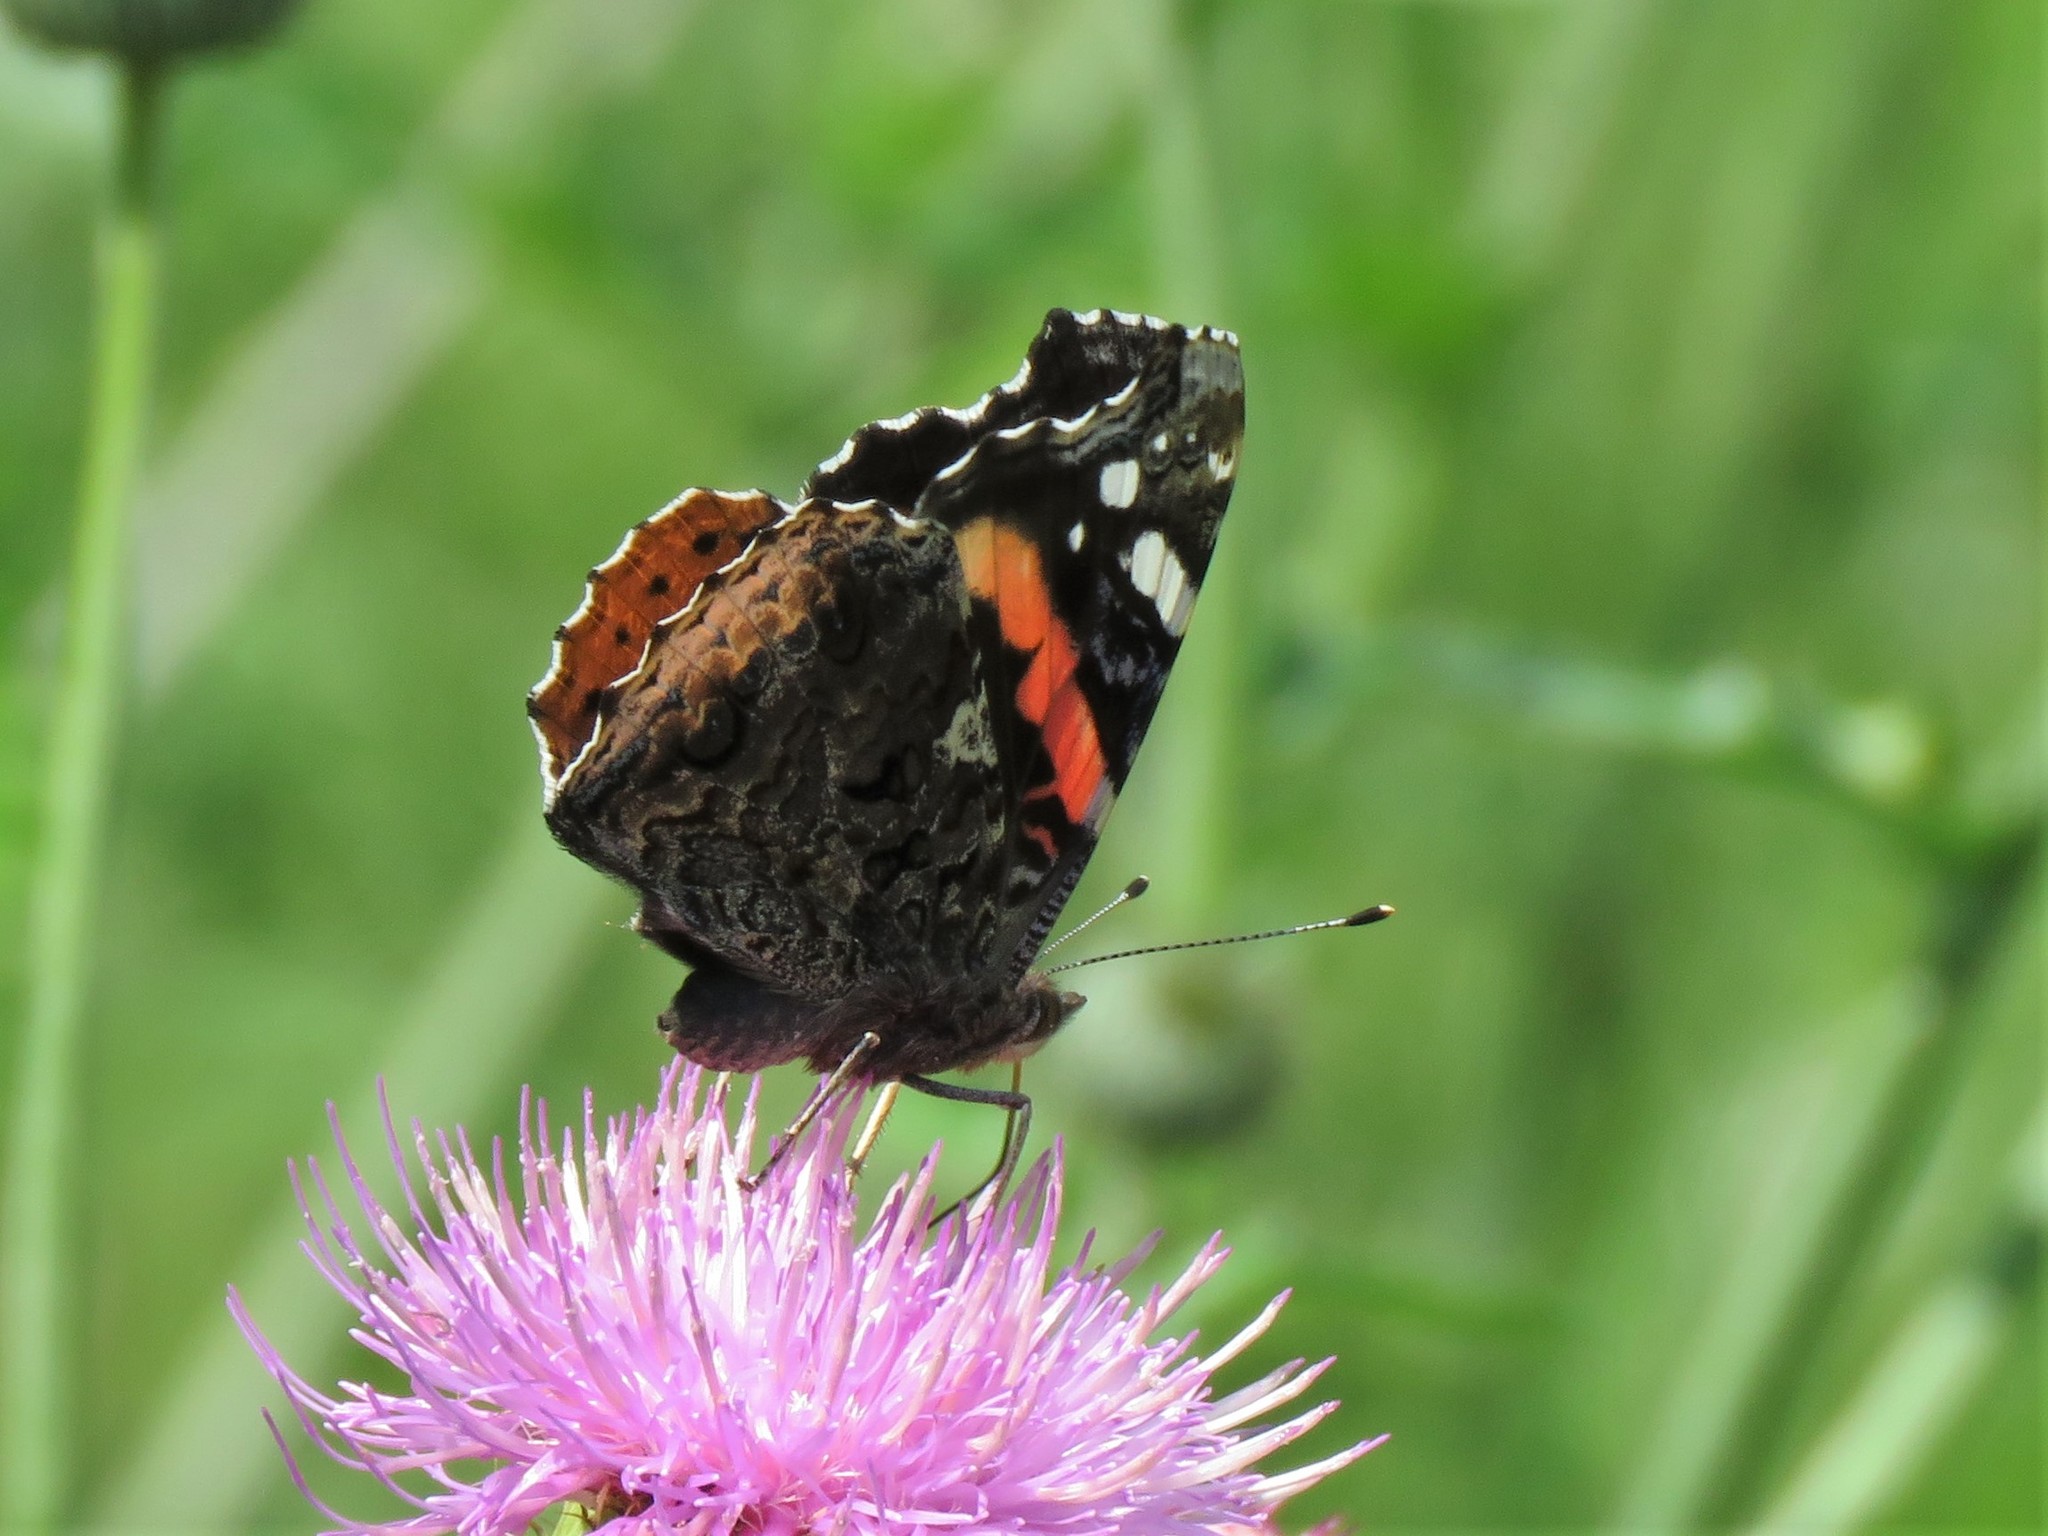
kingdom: Animalia
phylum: Arthropoda
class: Insecta
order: Lepidoptera
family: Nymphalidae
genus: Vanessa
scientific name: Vanessa atalanta
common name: Red admiral
